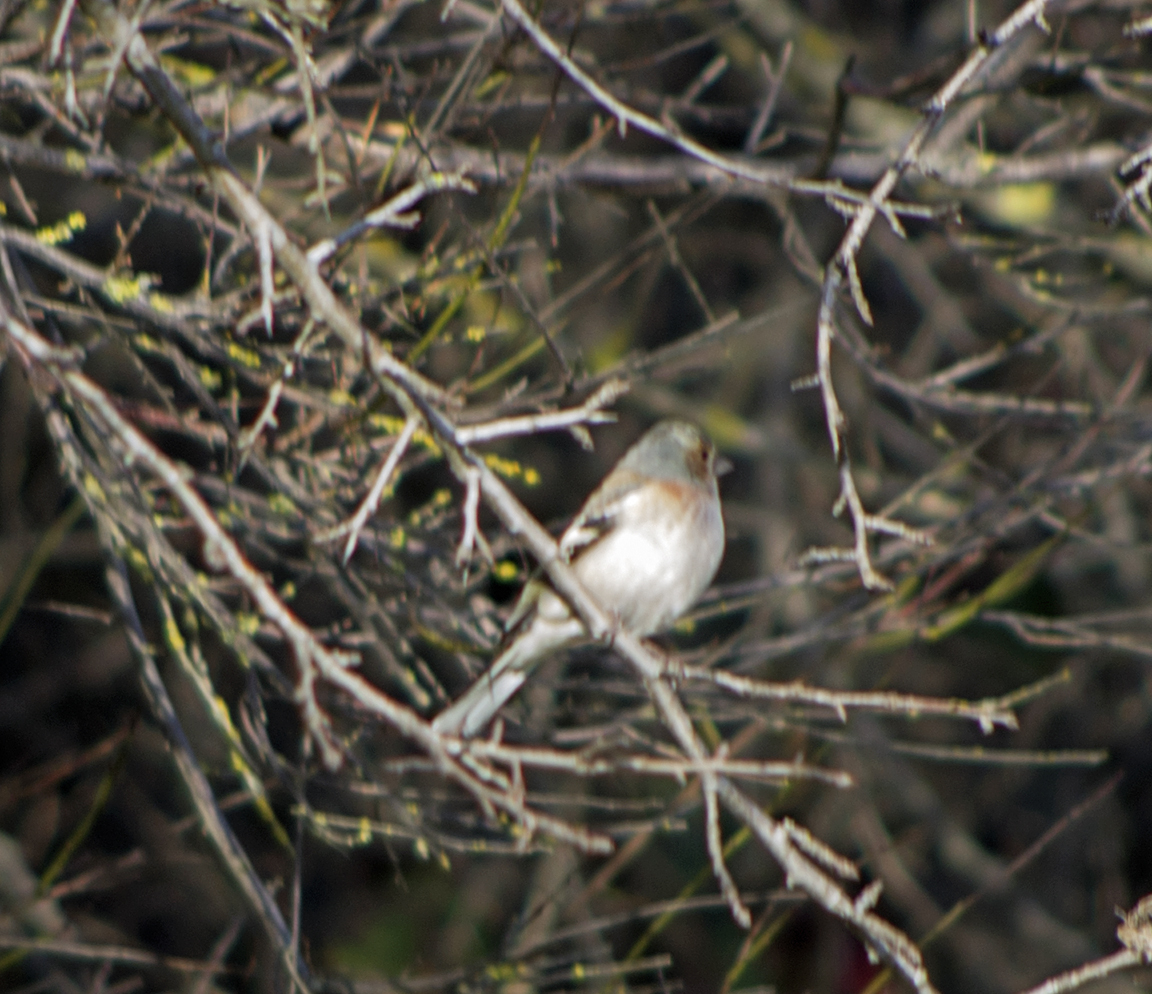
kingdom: Animalia
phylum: Chordata
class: Aves
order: Passeriformes
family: Fringillidae
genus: Fringilla
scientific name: Fringilla coelebs
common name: Common chaffinch
